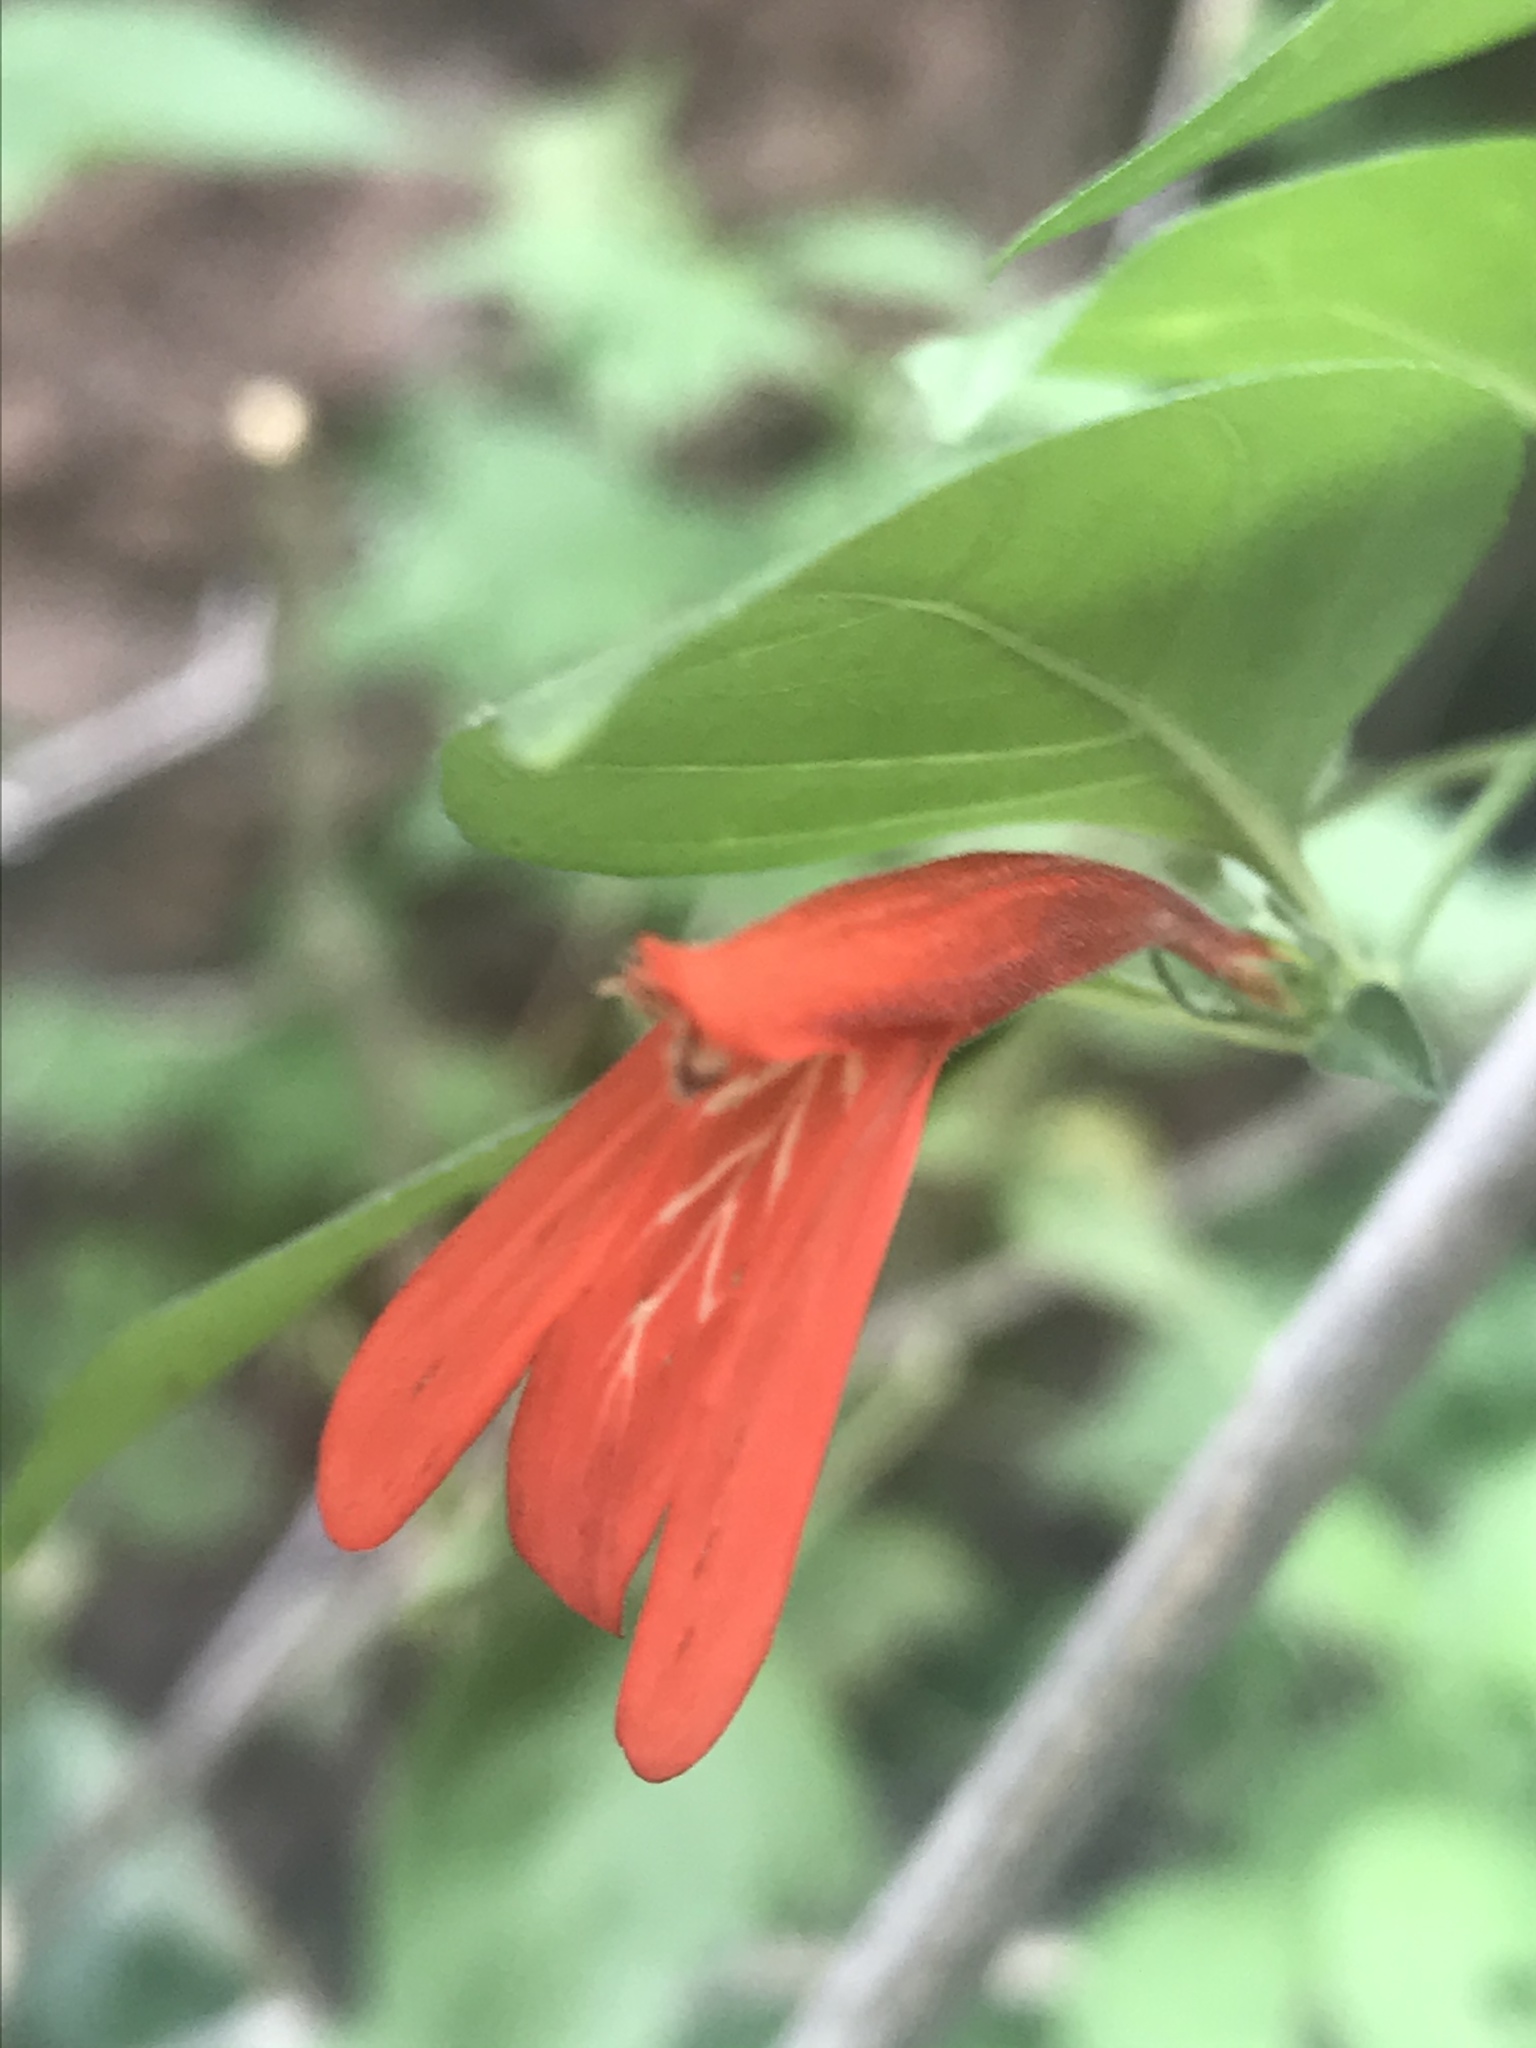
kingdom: Plantae
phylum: Tracheophyta
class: Magnoliopsida
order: Lamiales
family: Acanthaceae
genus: Dianthera
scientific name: Dianthera candicans
